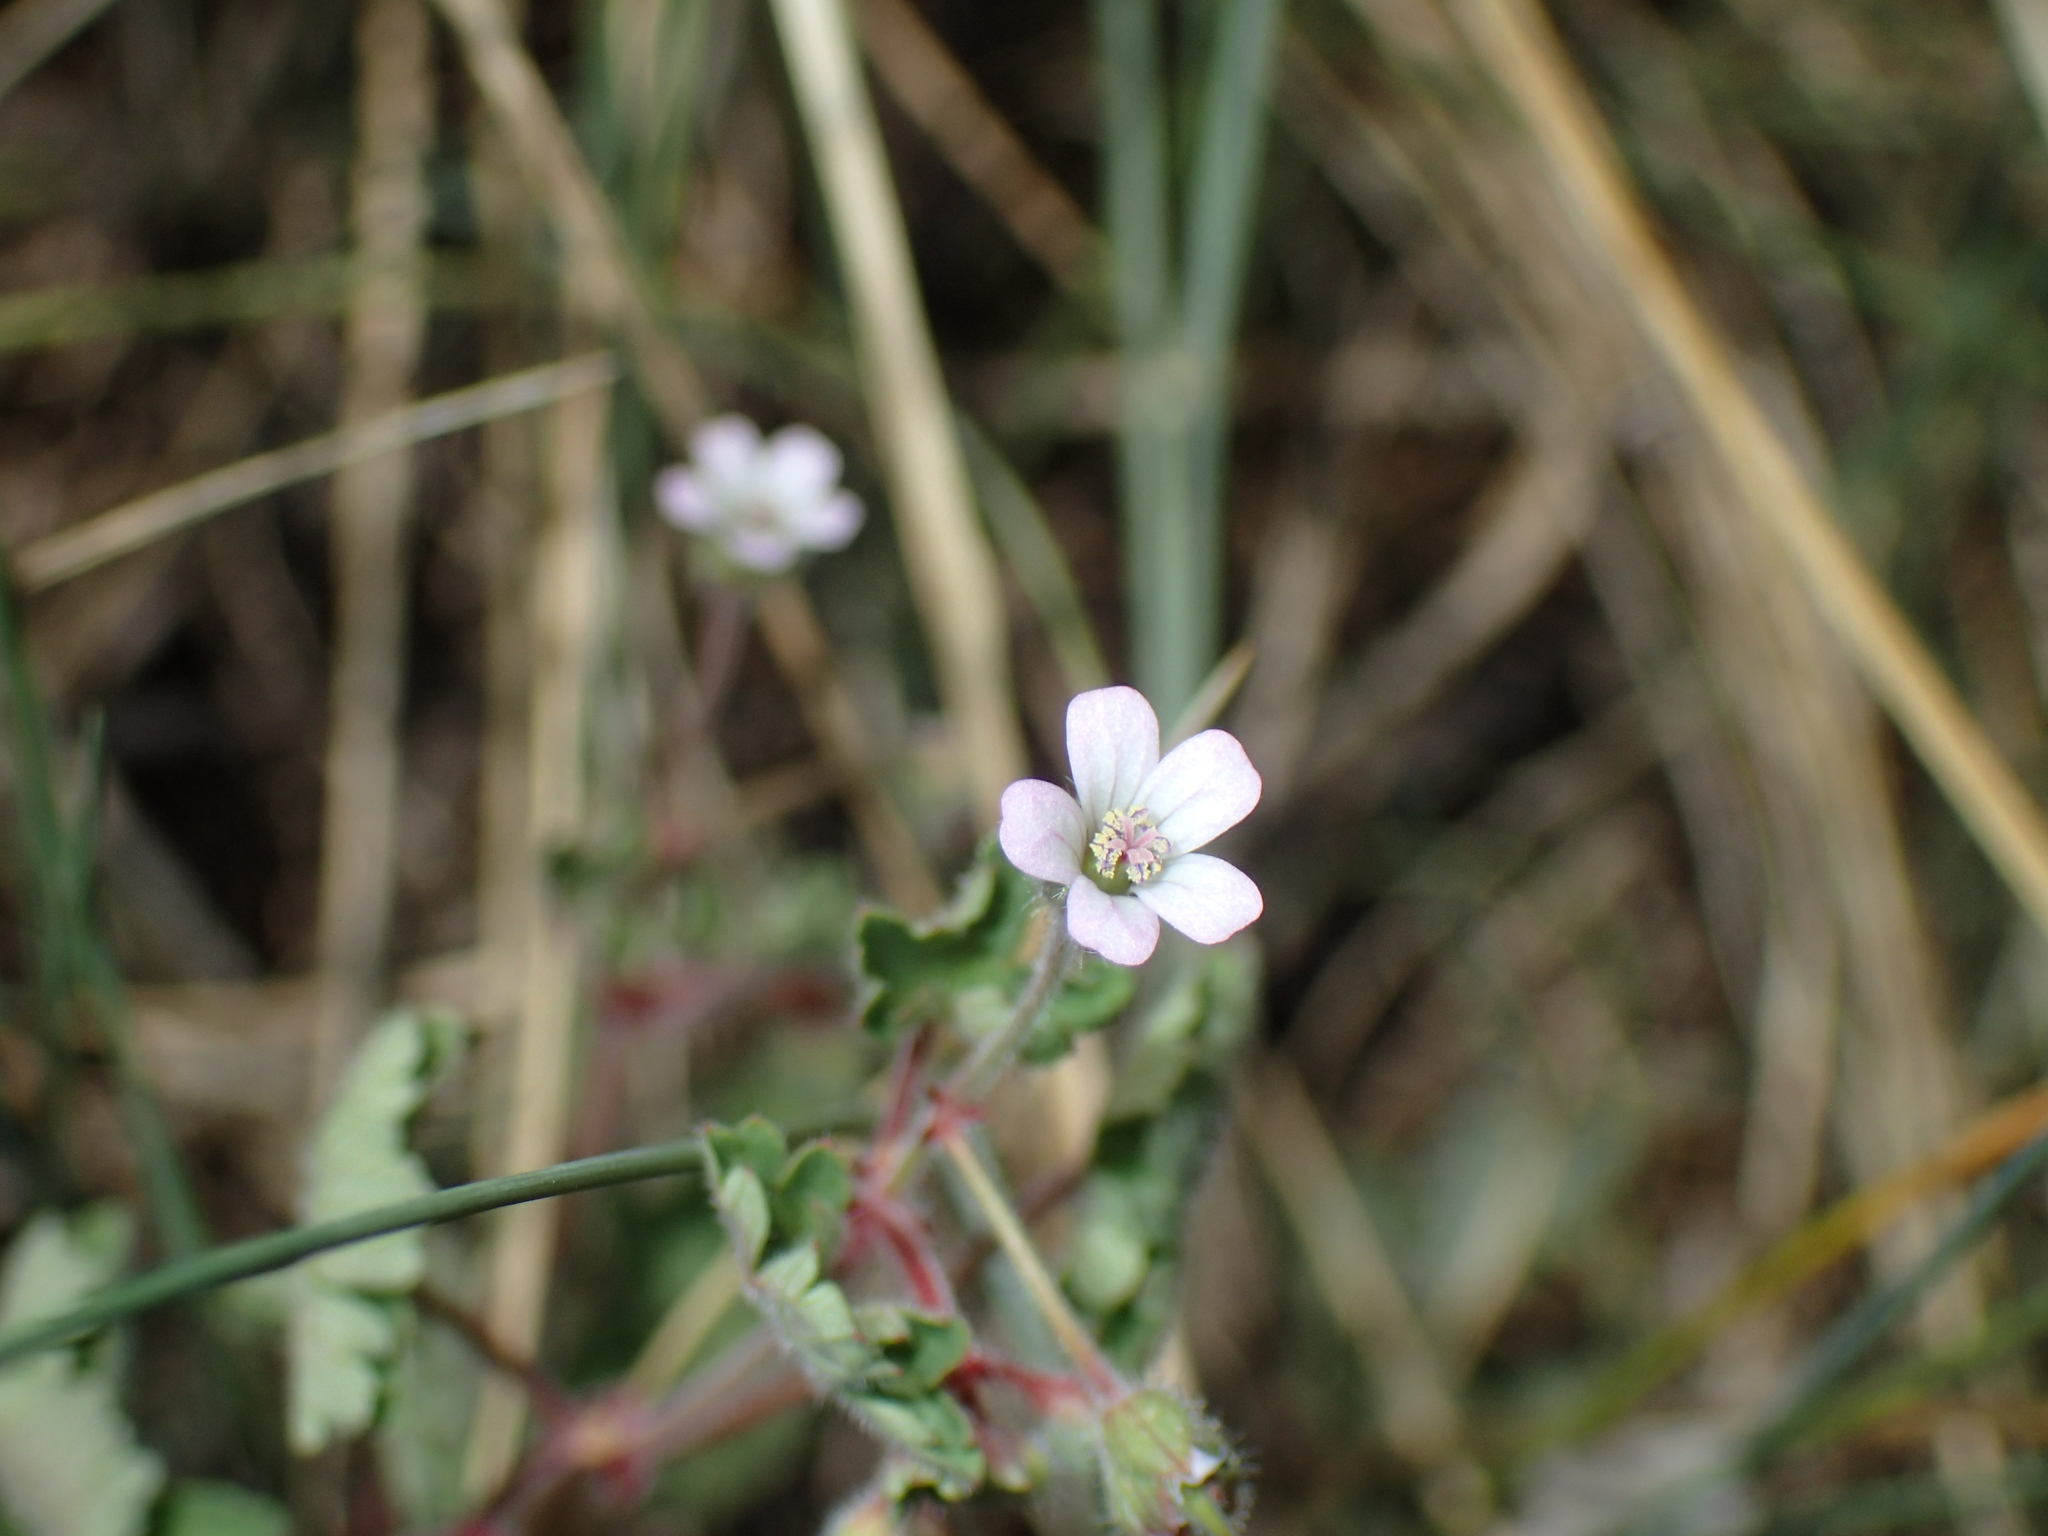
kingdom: Plantae
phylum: Tracheophyta
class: Magnoliopsida
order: Geraniales
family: Geraniaceae
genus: Geranium
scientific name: Geranium rotundifolium
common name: Round-leaved crane's-bill
